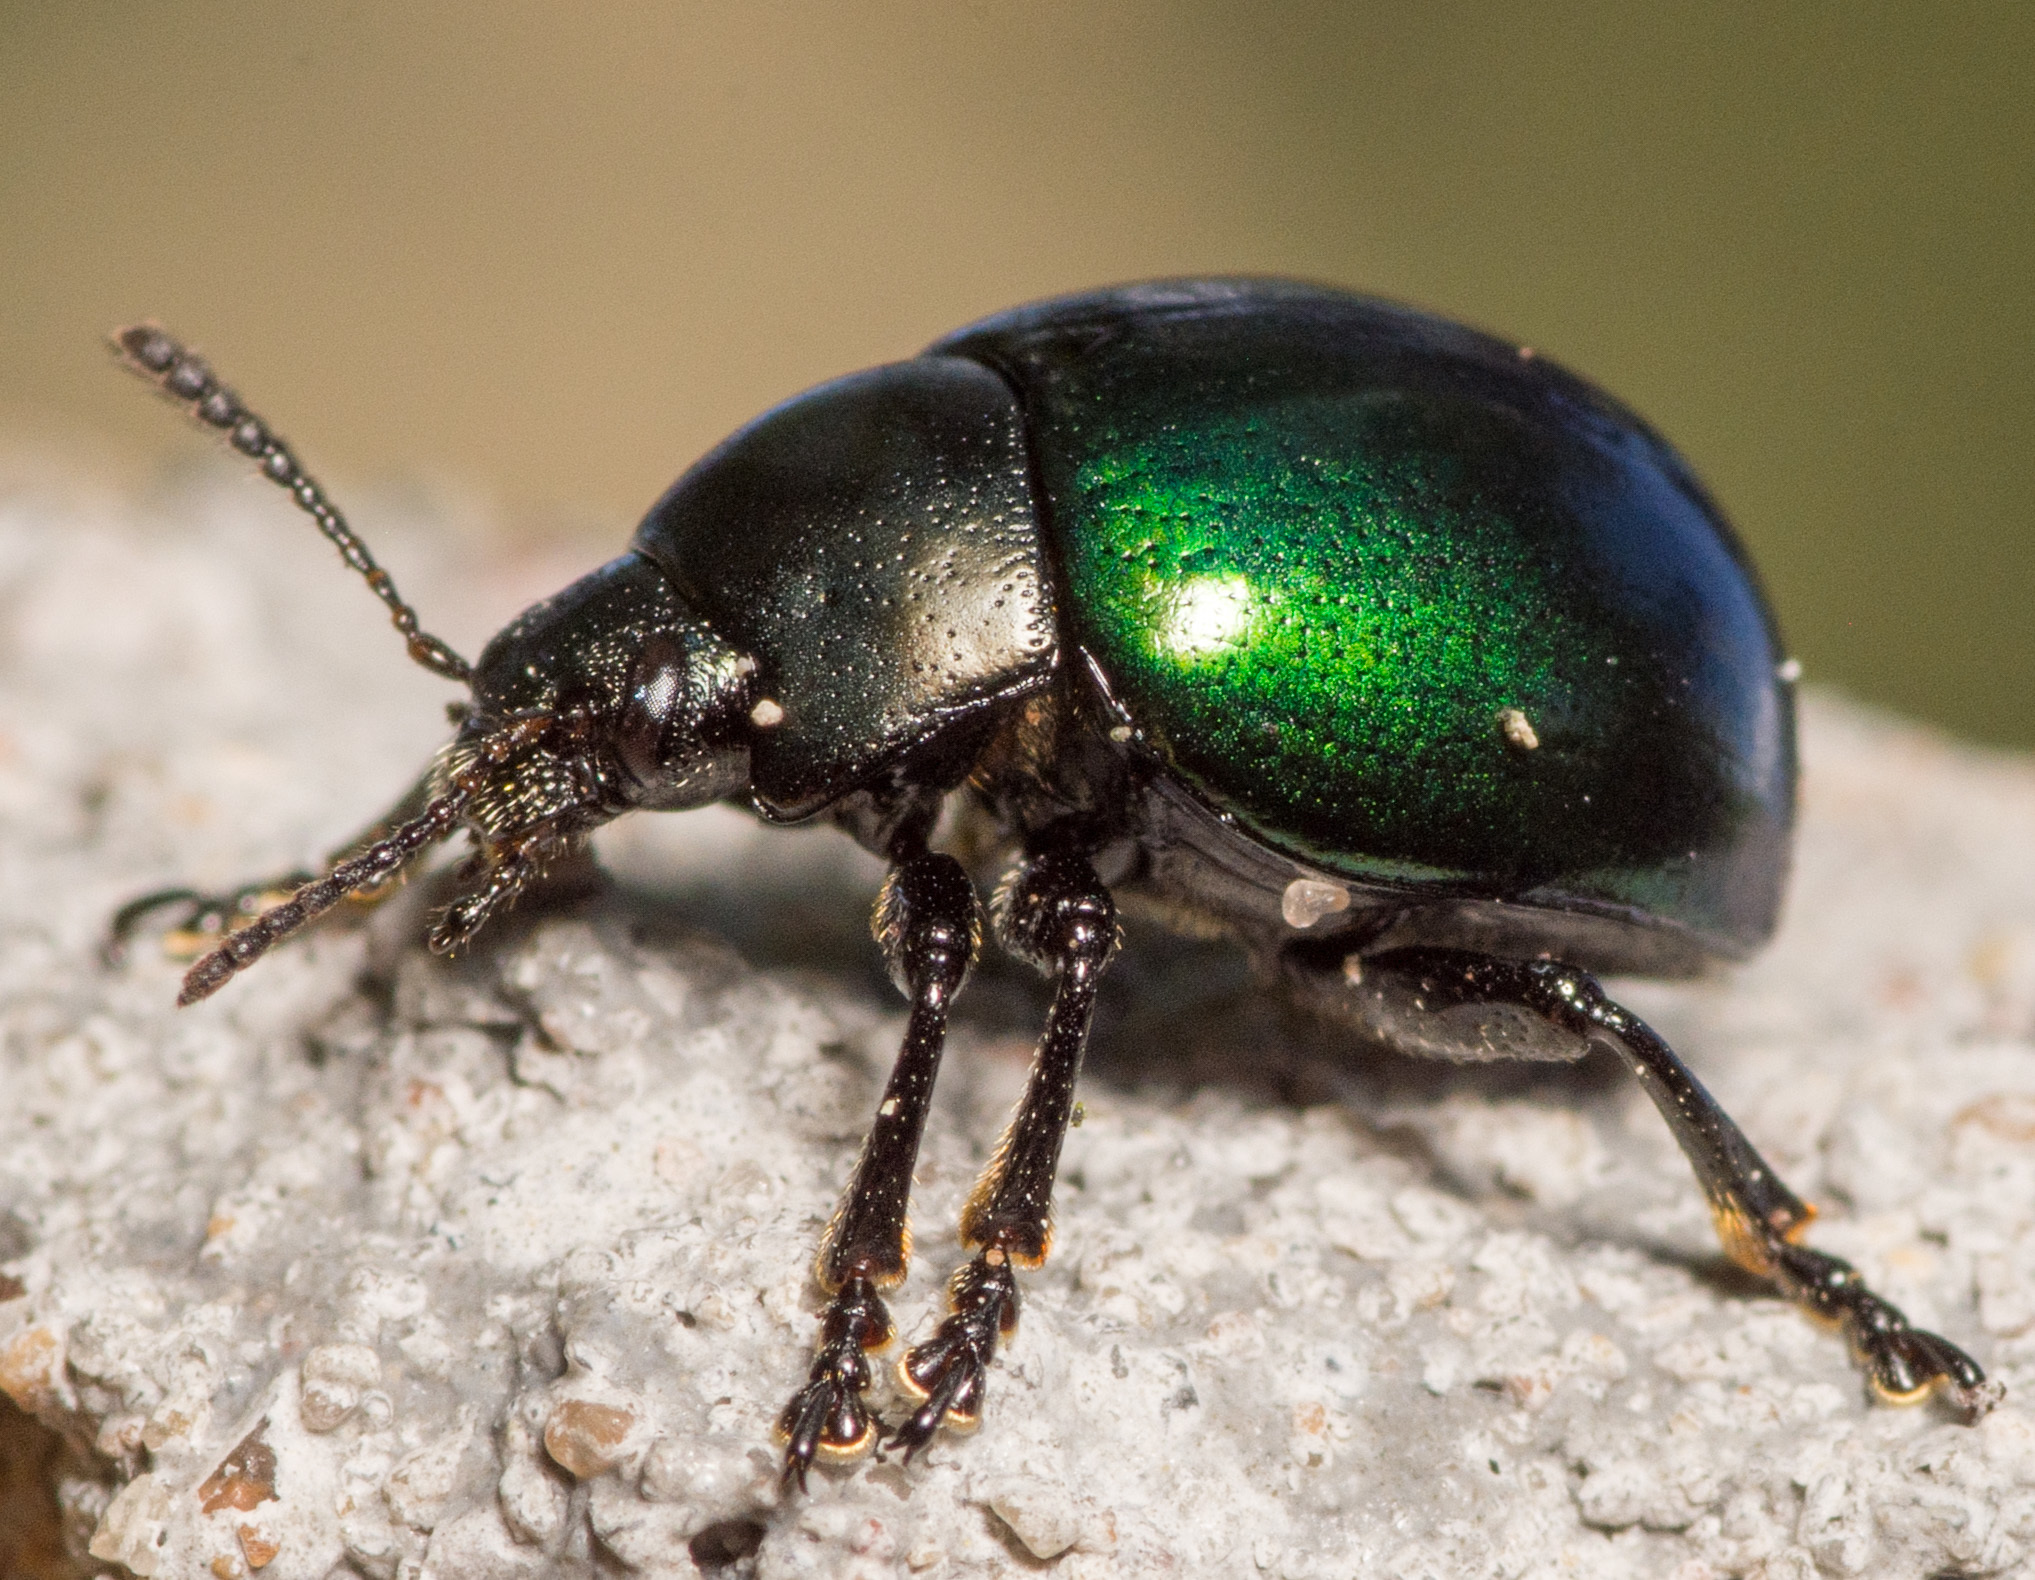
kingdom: Animalia
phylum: Arthropoda
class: Insecta
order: Coleoptera
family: Chrysomelidae
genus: Leptinotarsa
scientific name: Leptinotarsa haldemani
